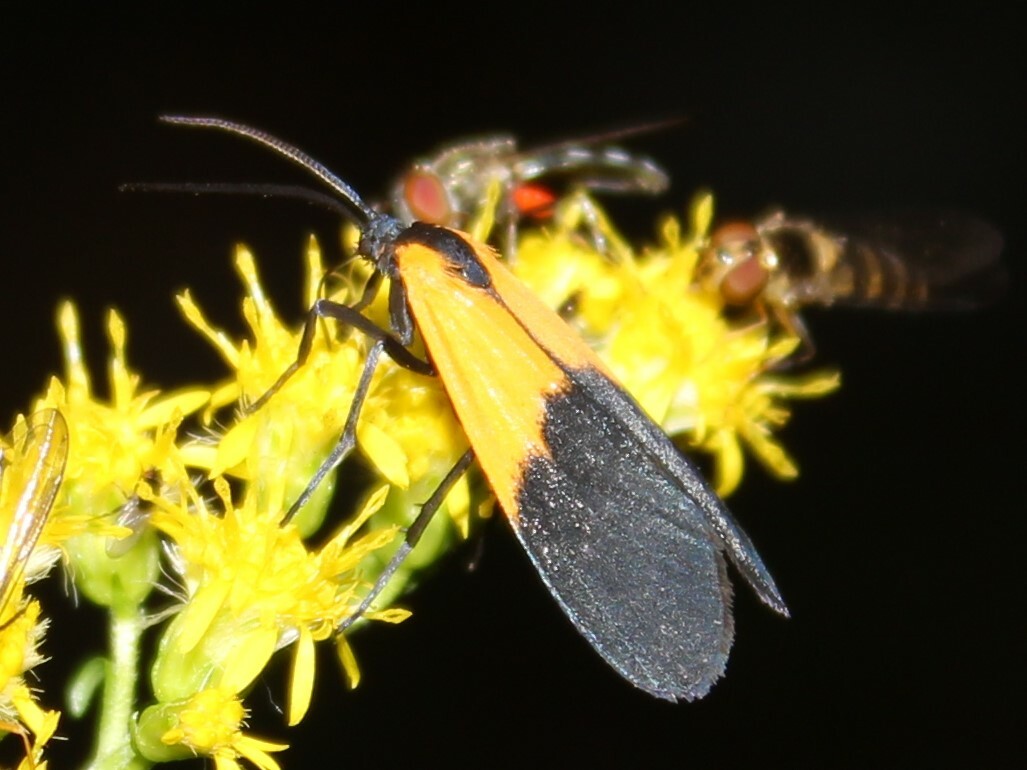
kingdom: Animalia
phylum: Arthropoda
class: Insecta
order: Lepidoptera
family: Erebidae
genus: Lycomorpha
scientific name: Lycomorpha pholus
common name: Black-and-yellow lichen moth
